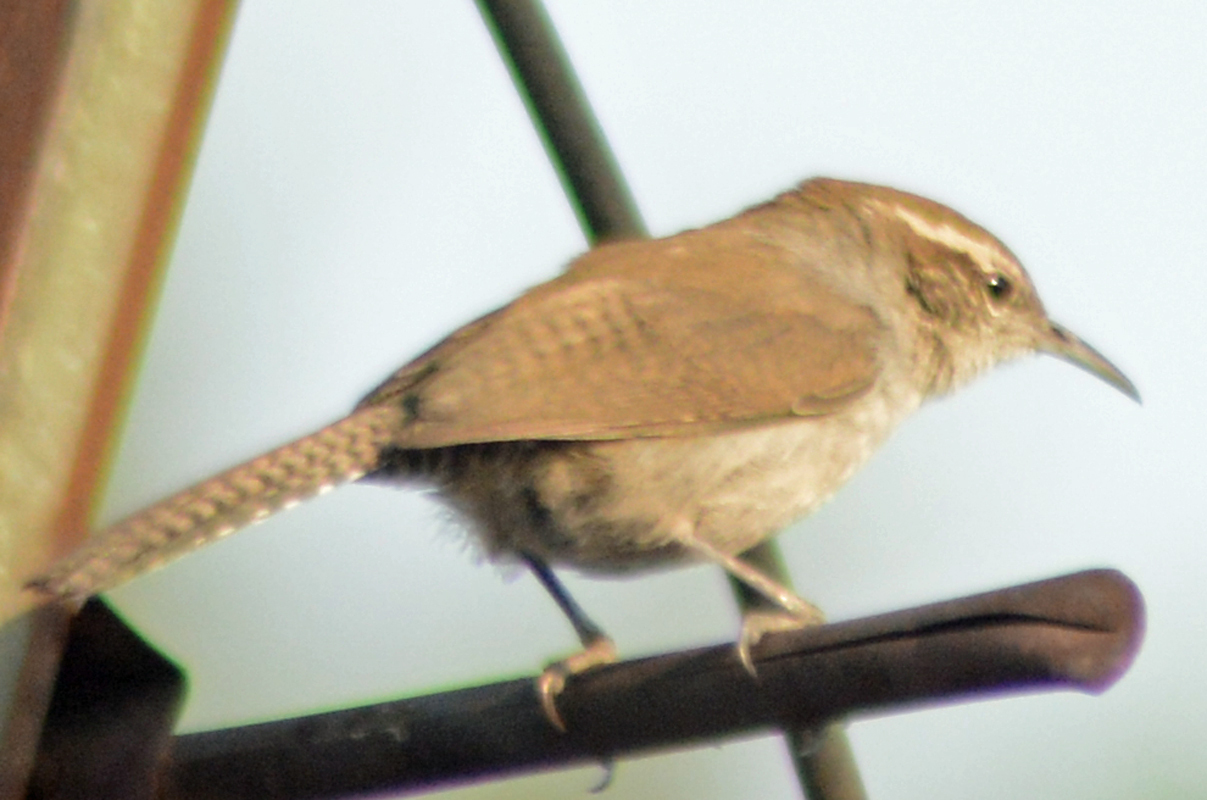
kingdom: Animalia
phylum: Chordata
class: Aves
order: Passeriformes
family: Troglodytidae
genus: Thryomanes
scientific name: Thryomanes bewickii
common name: Bewick's wren
